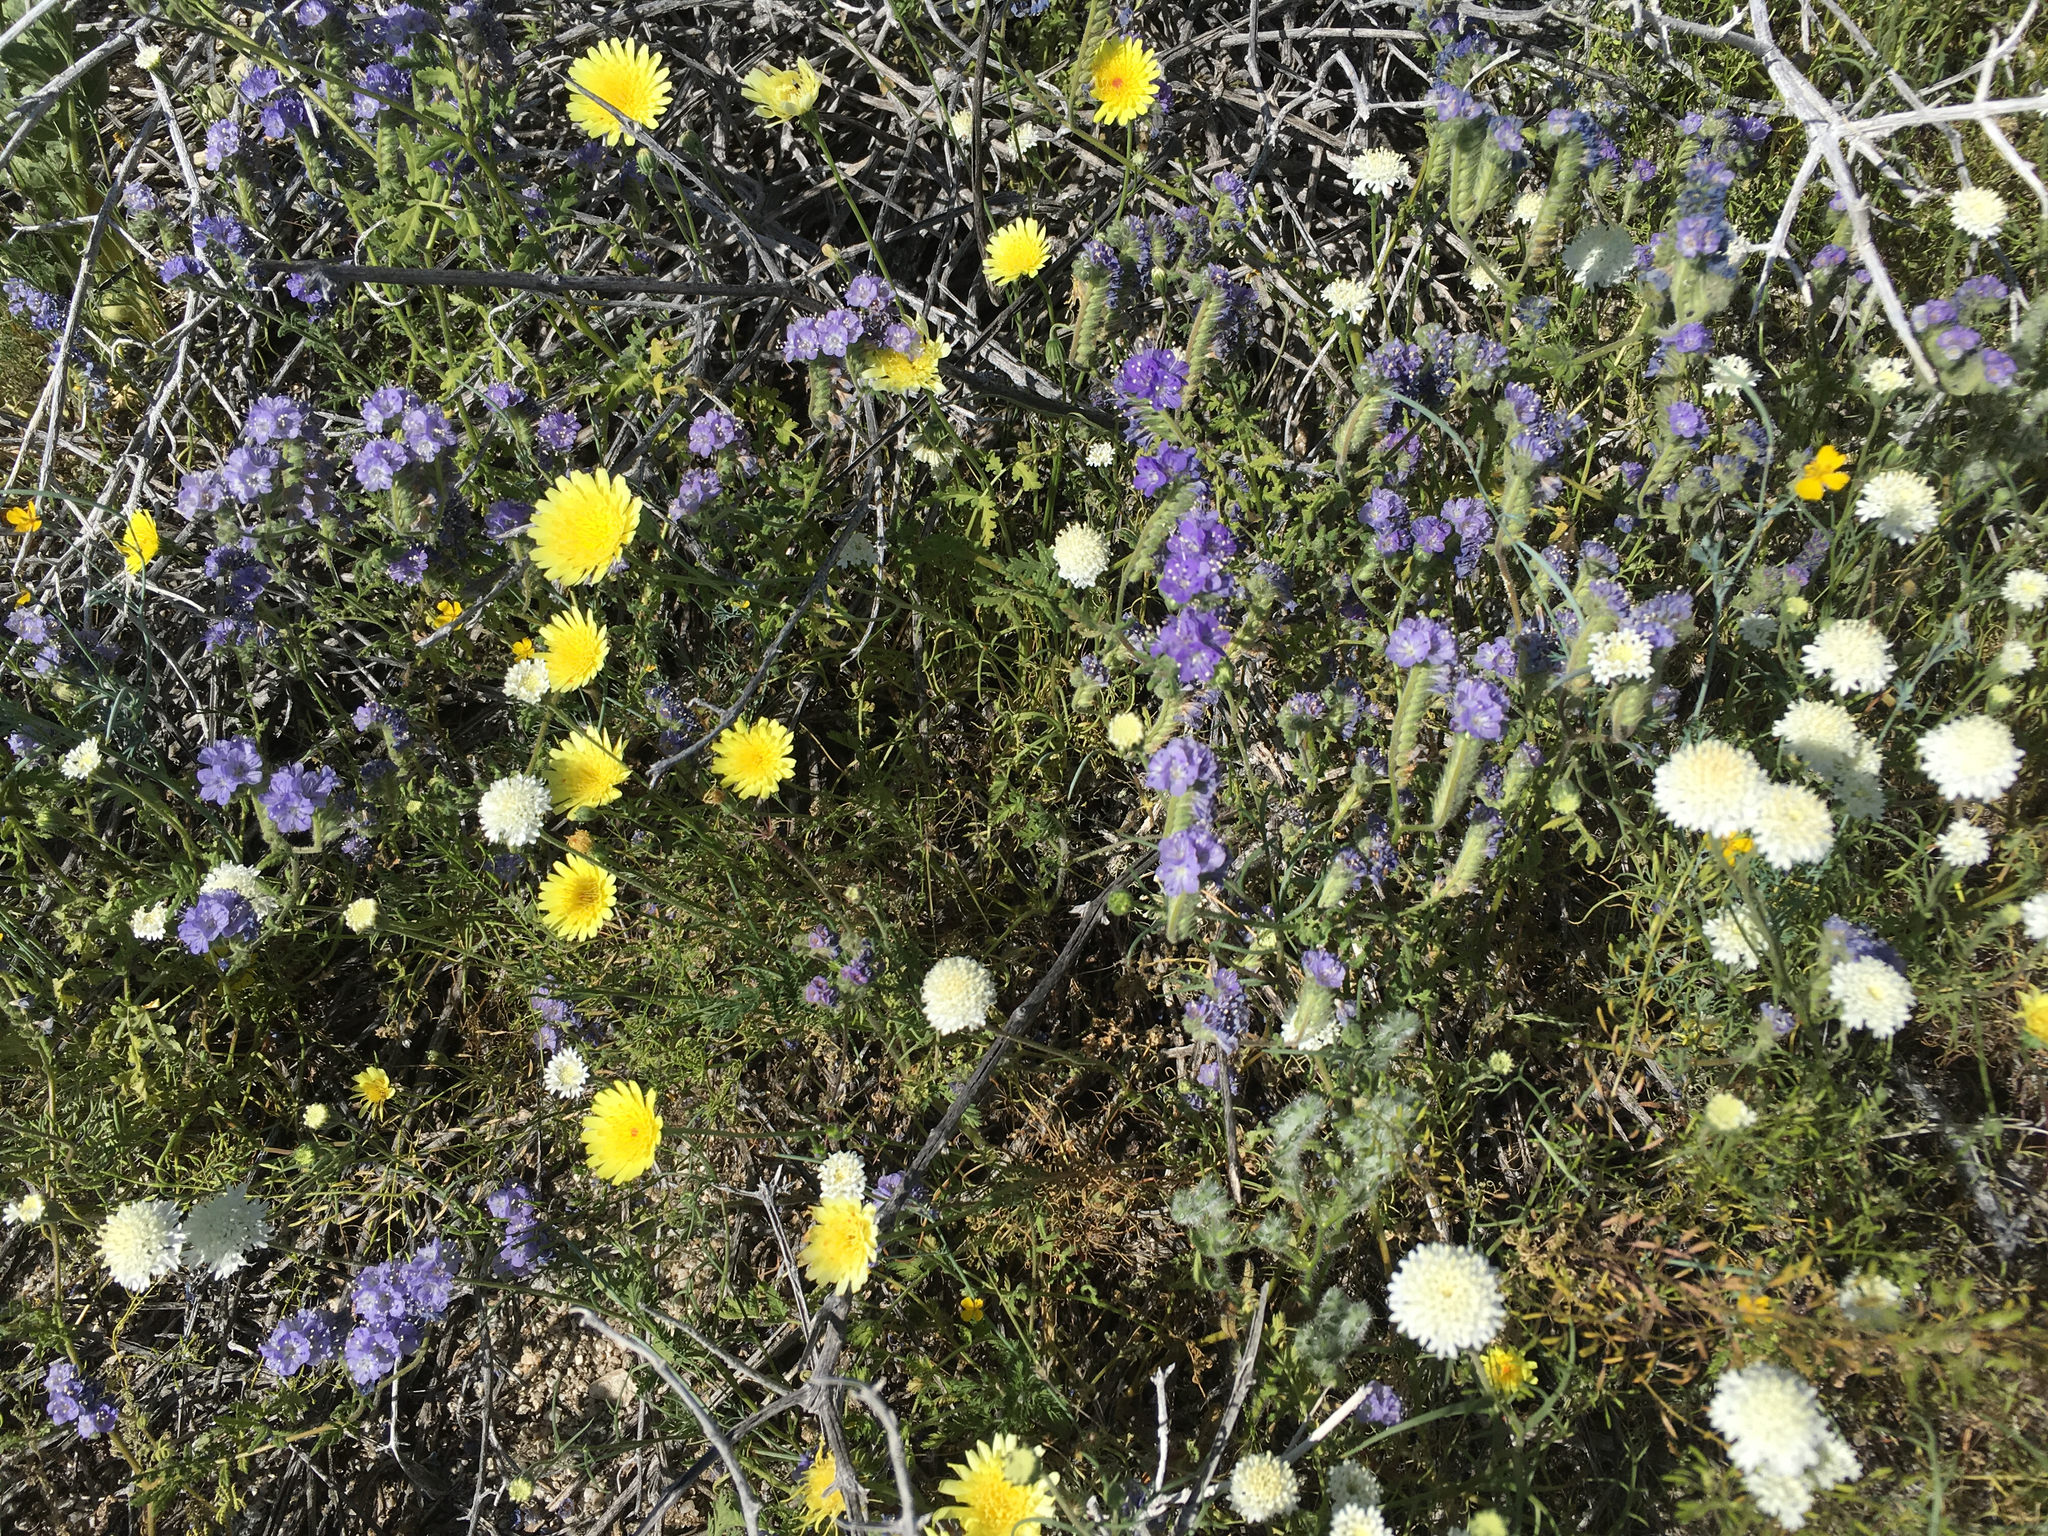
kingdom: Plantae
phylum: Tracheophyta
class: Magnoliopsida
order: Boraginales
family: Hydrophyllaceae
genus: Phacelia
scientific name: Phacelia distans
